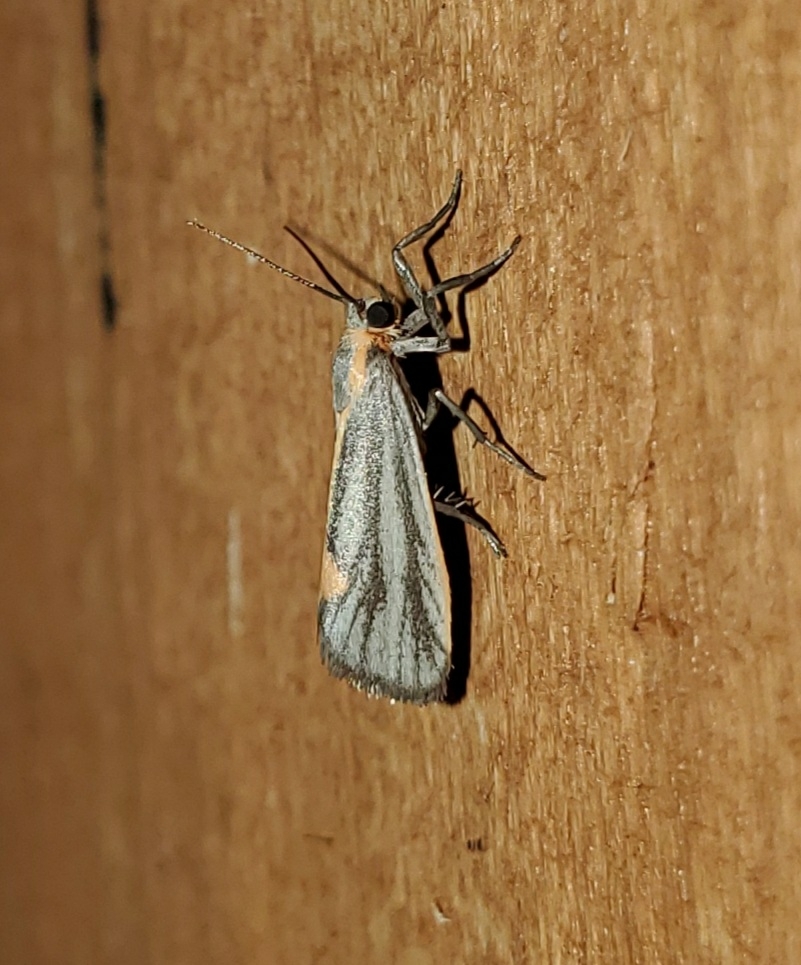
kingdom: Animalia
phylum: Arthropoda
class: Insecta
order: Lepidoptera
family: Erebidae
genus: Cisthene
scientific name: Cisthene striata
